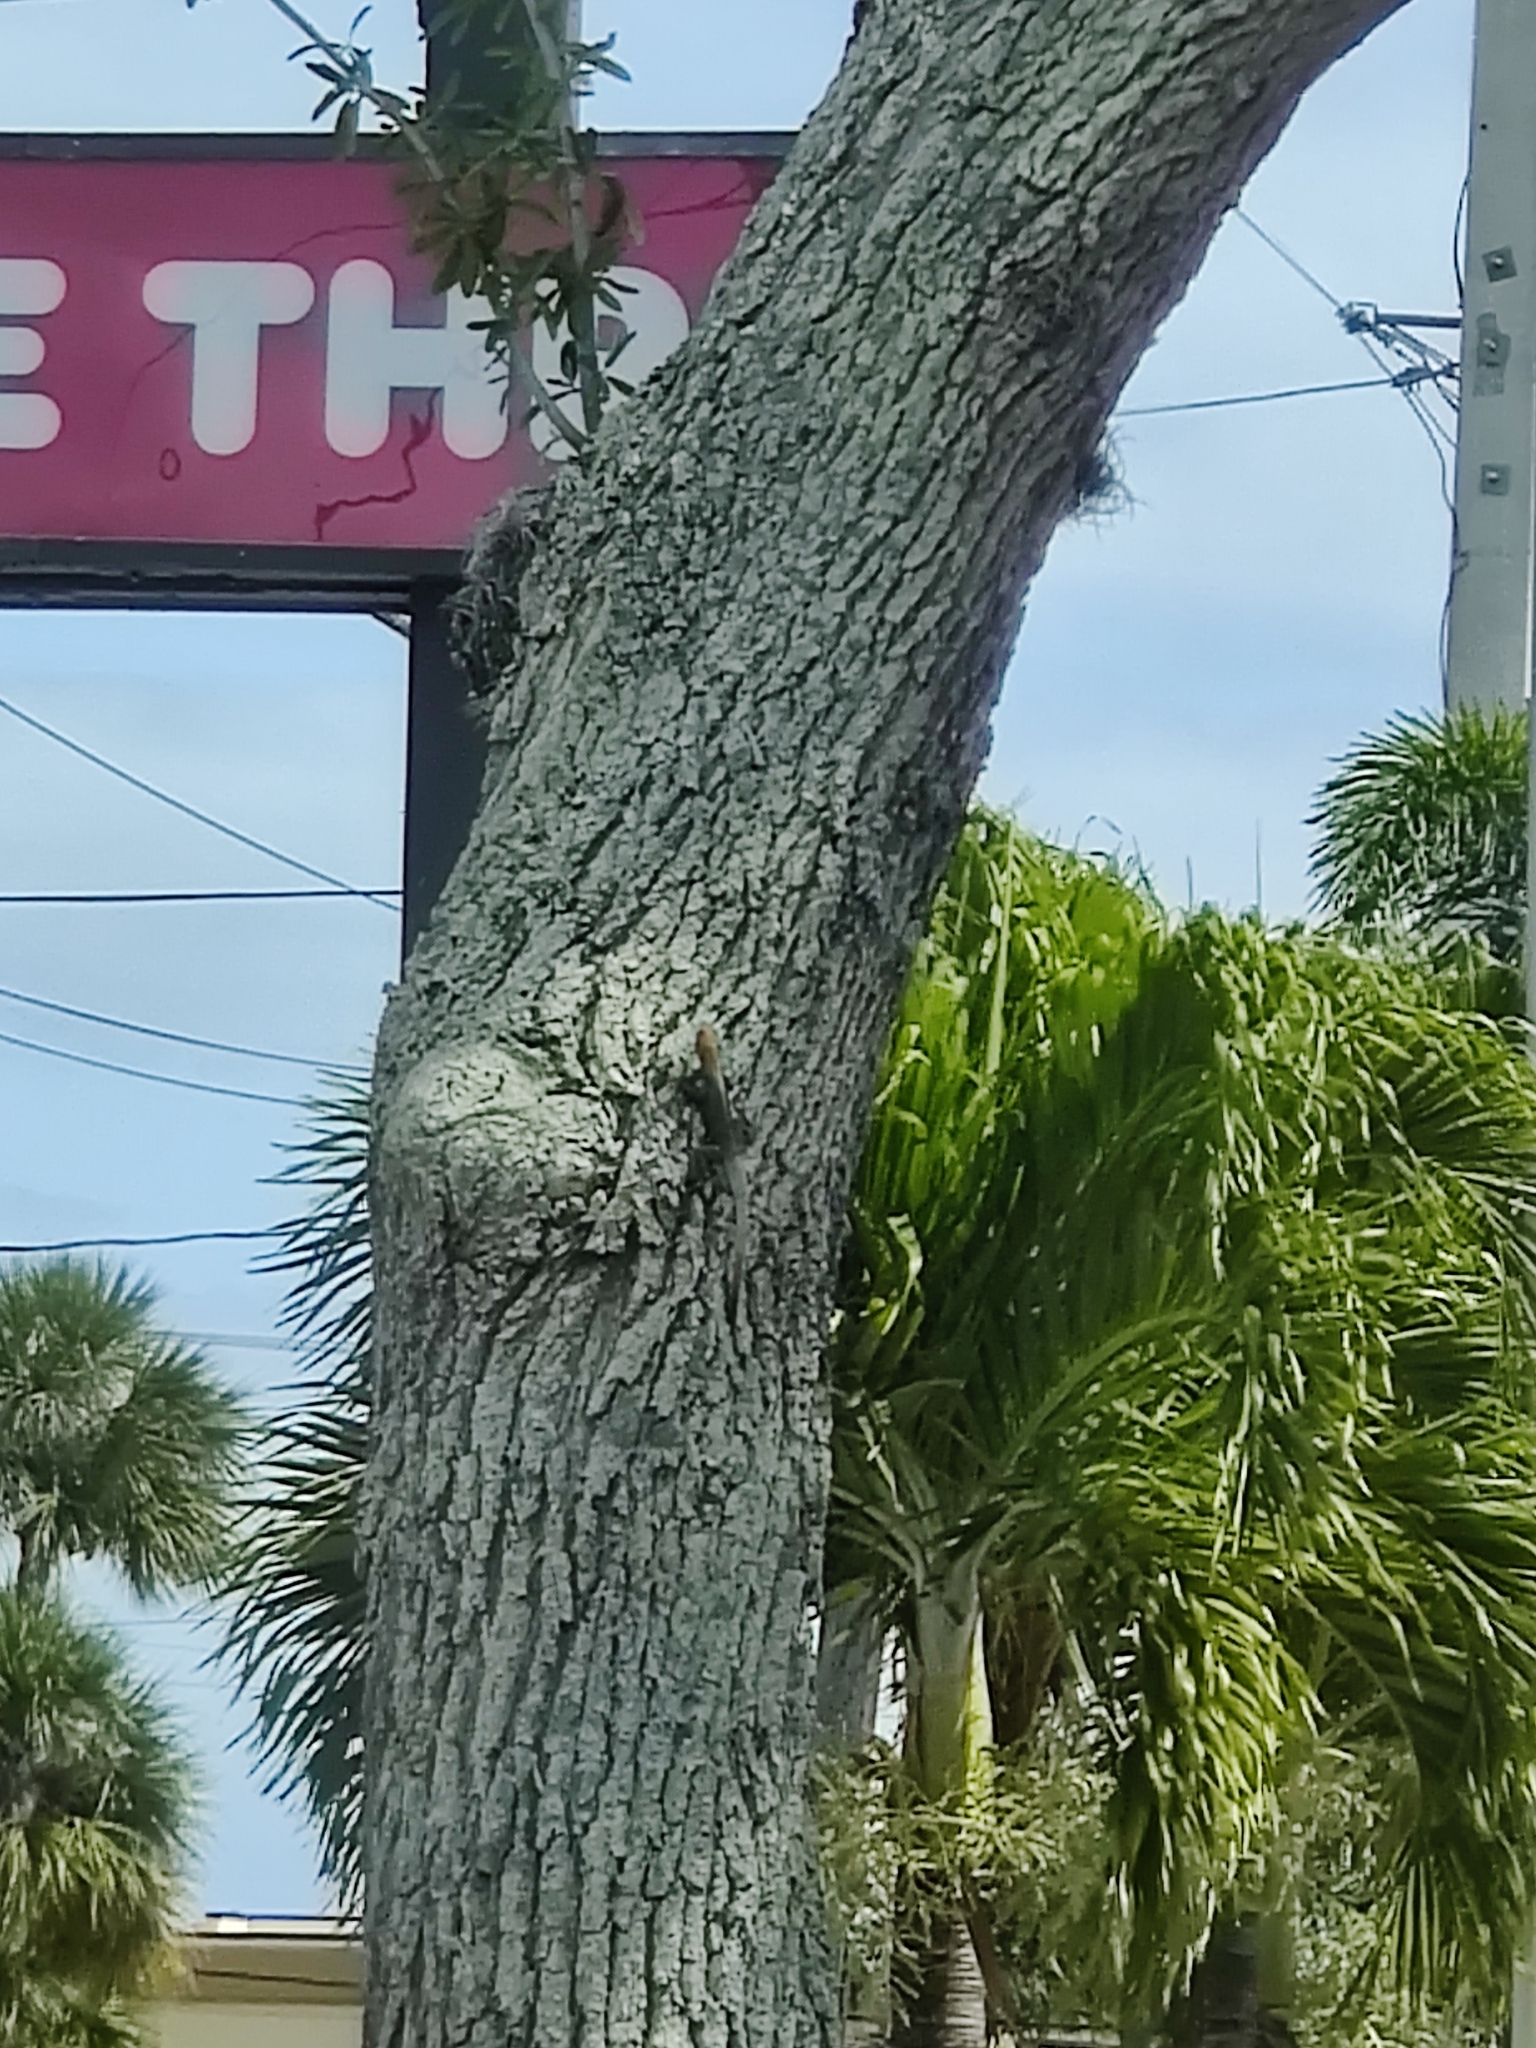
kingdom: Animalia
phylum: Chordata
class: Squamata
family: Agamidae
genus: Agama
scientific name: Agama picticauda
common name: Red-headed agama
